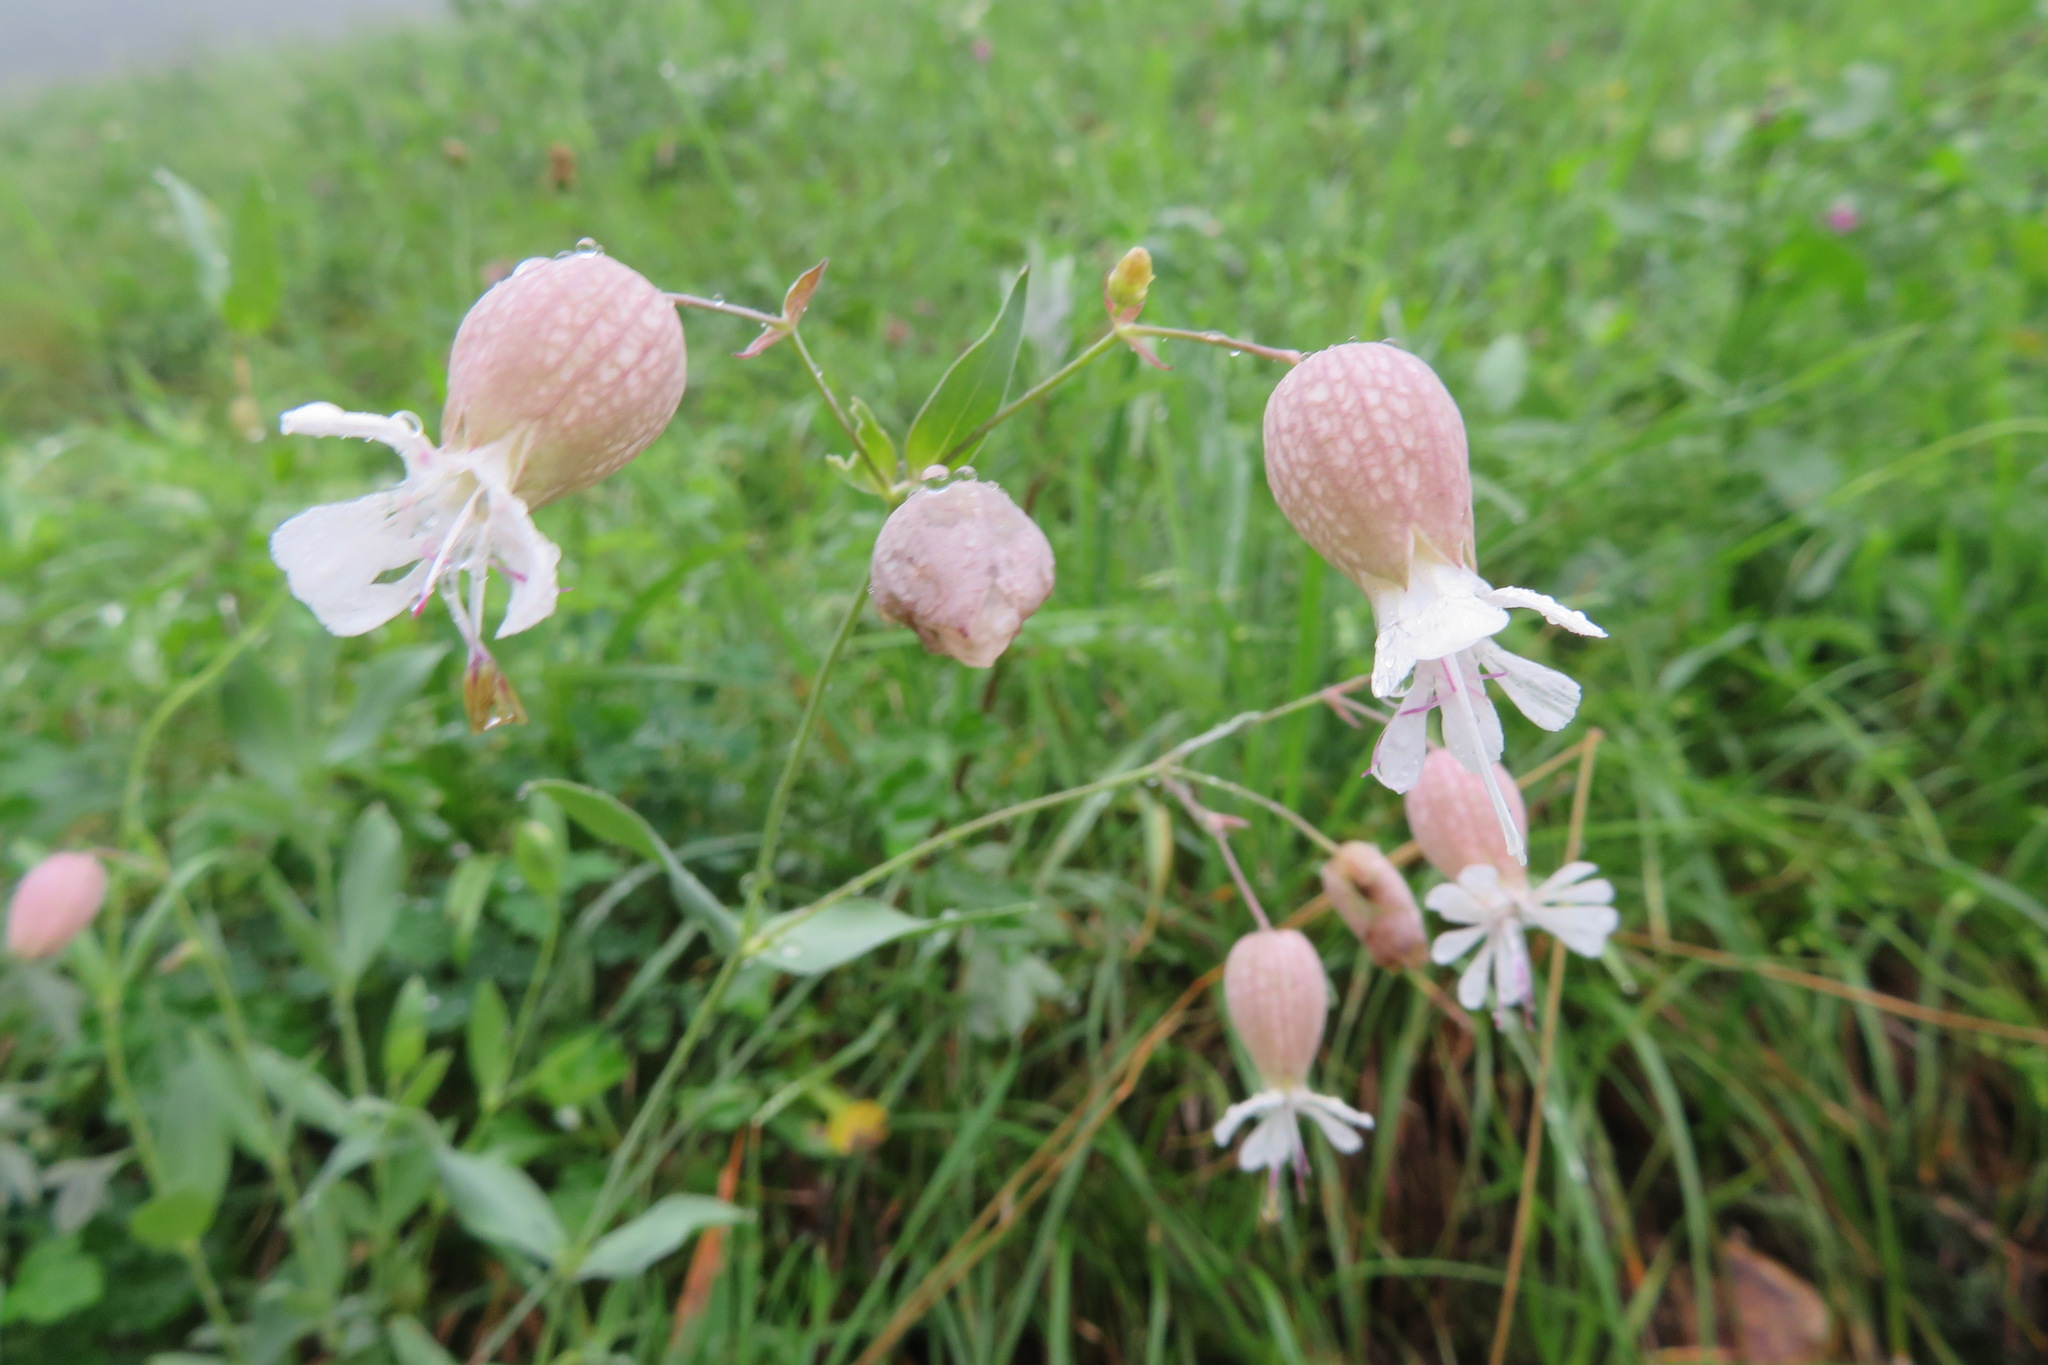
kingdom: Plantae
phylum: Tracheophyta
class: Magnoliopsida
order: Caryophyllales
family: Caryophyllaceae
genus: Silene
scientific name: Silene vulgaris
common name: Bladder campion
